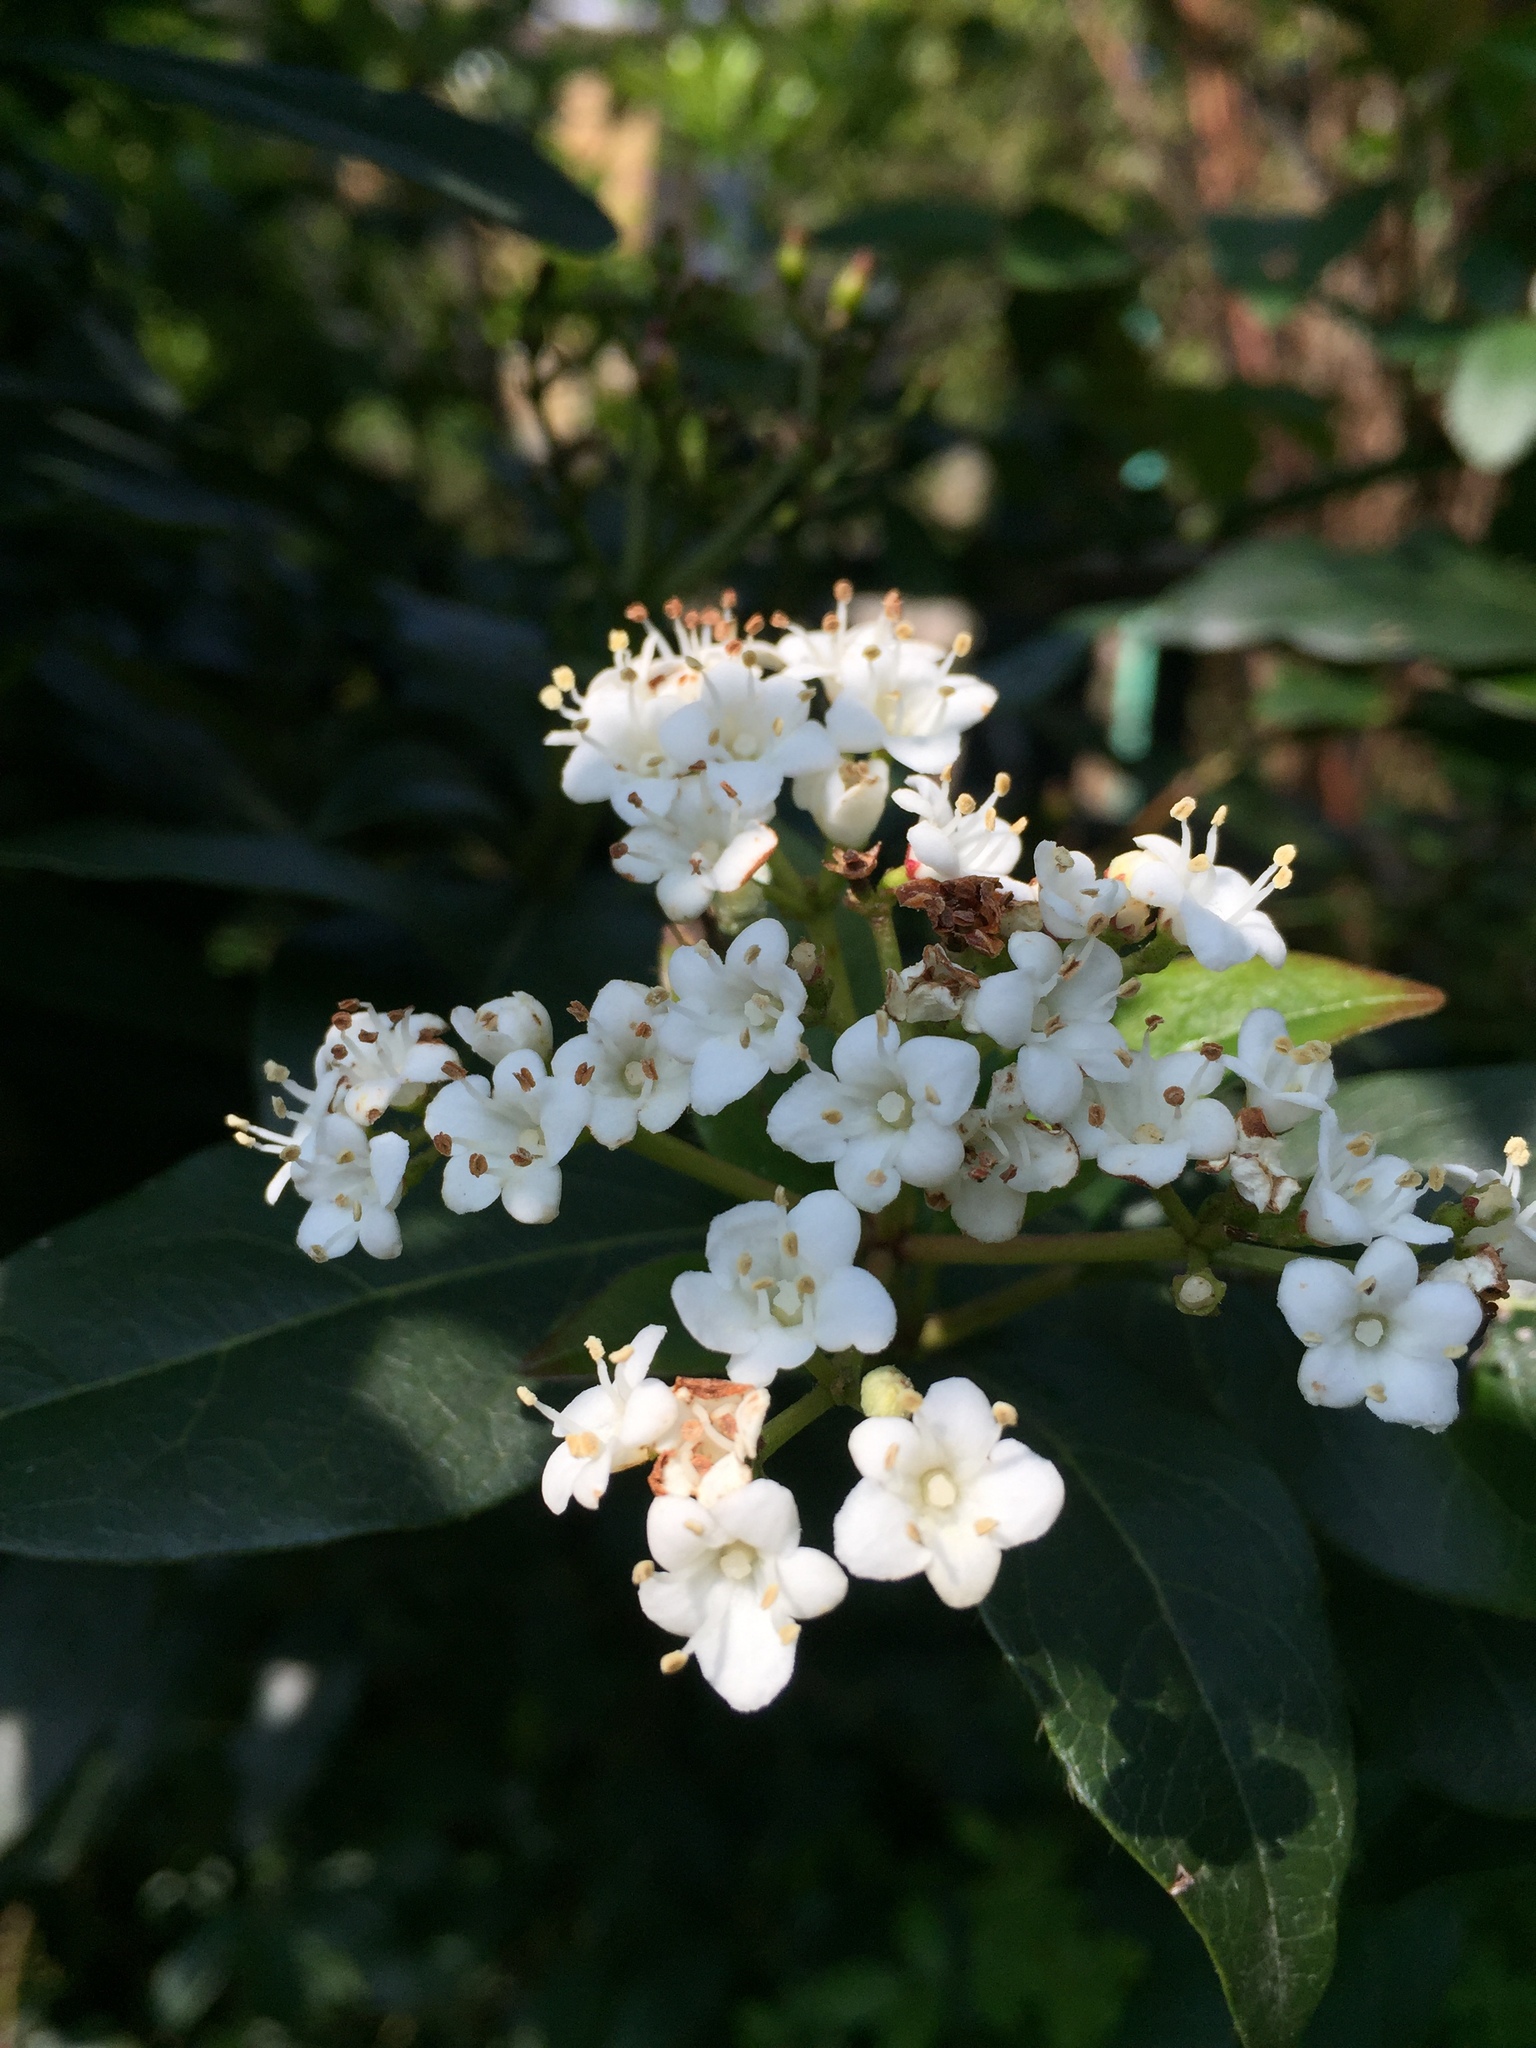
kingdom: Plantae
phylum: Tracheophyta
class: Magnoliopsida
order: Dipsacales
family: Viburnaceae
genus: Viburnum
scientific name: Viburnum tinus
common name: Laurustinus
